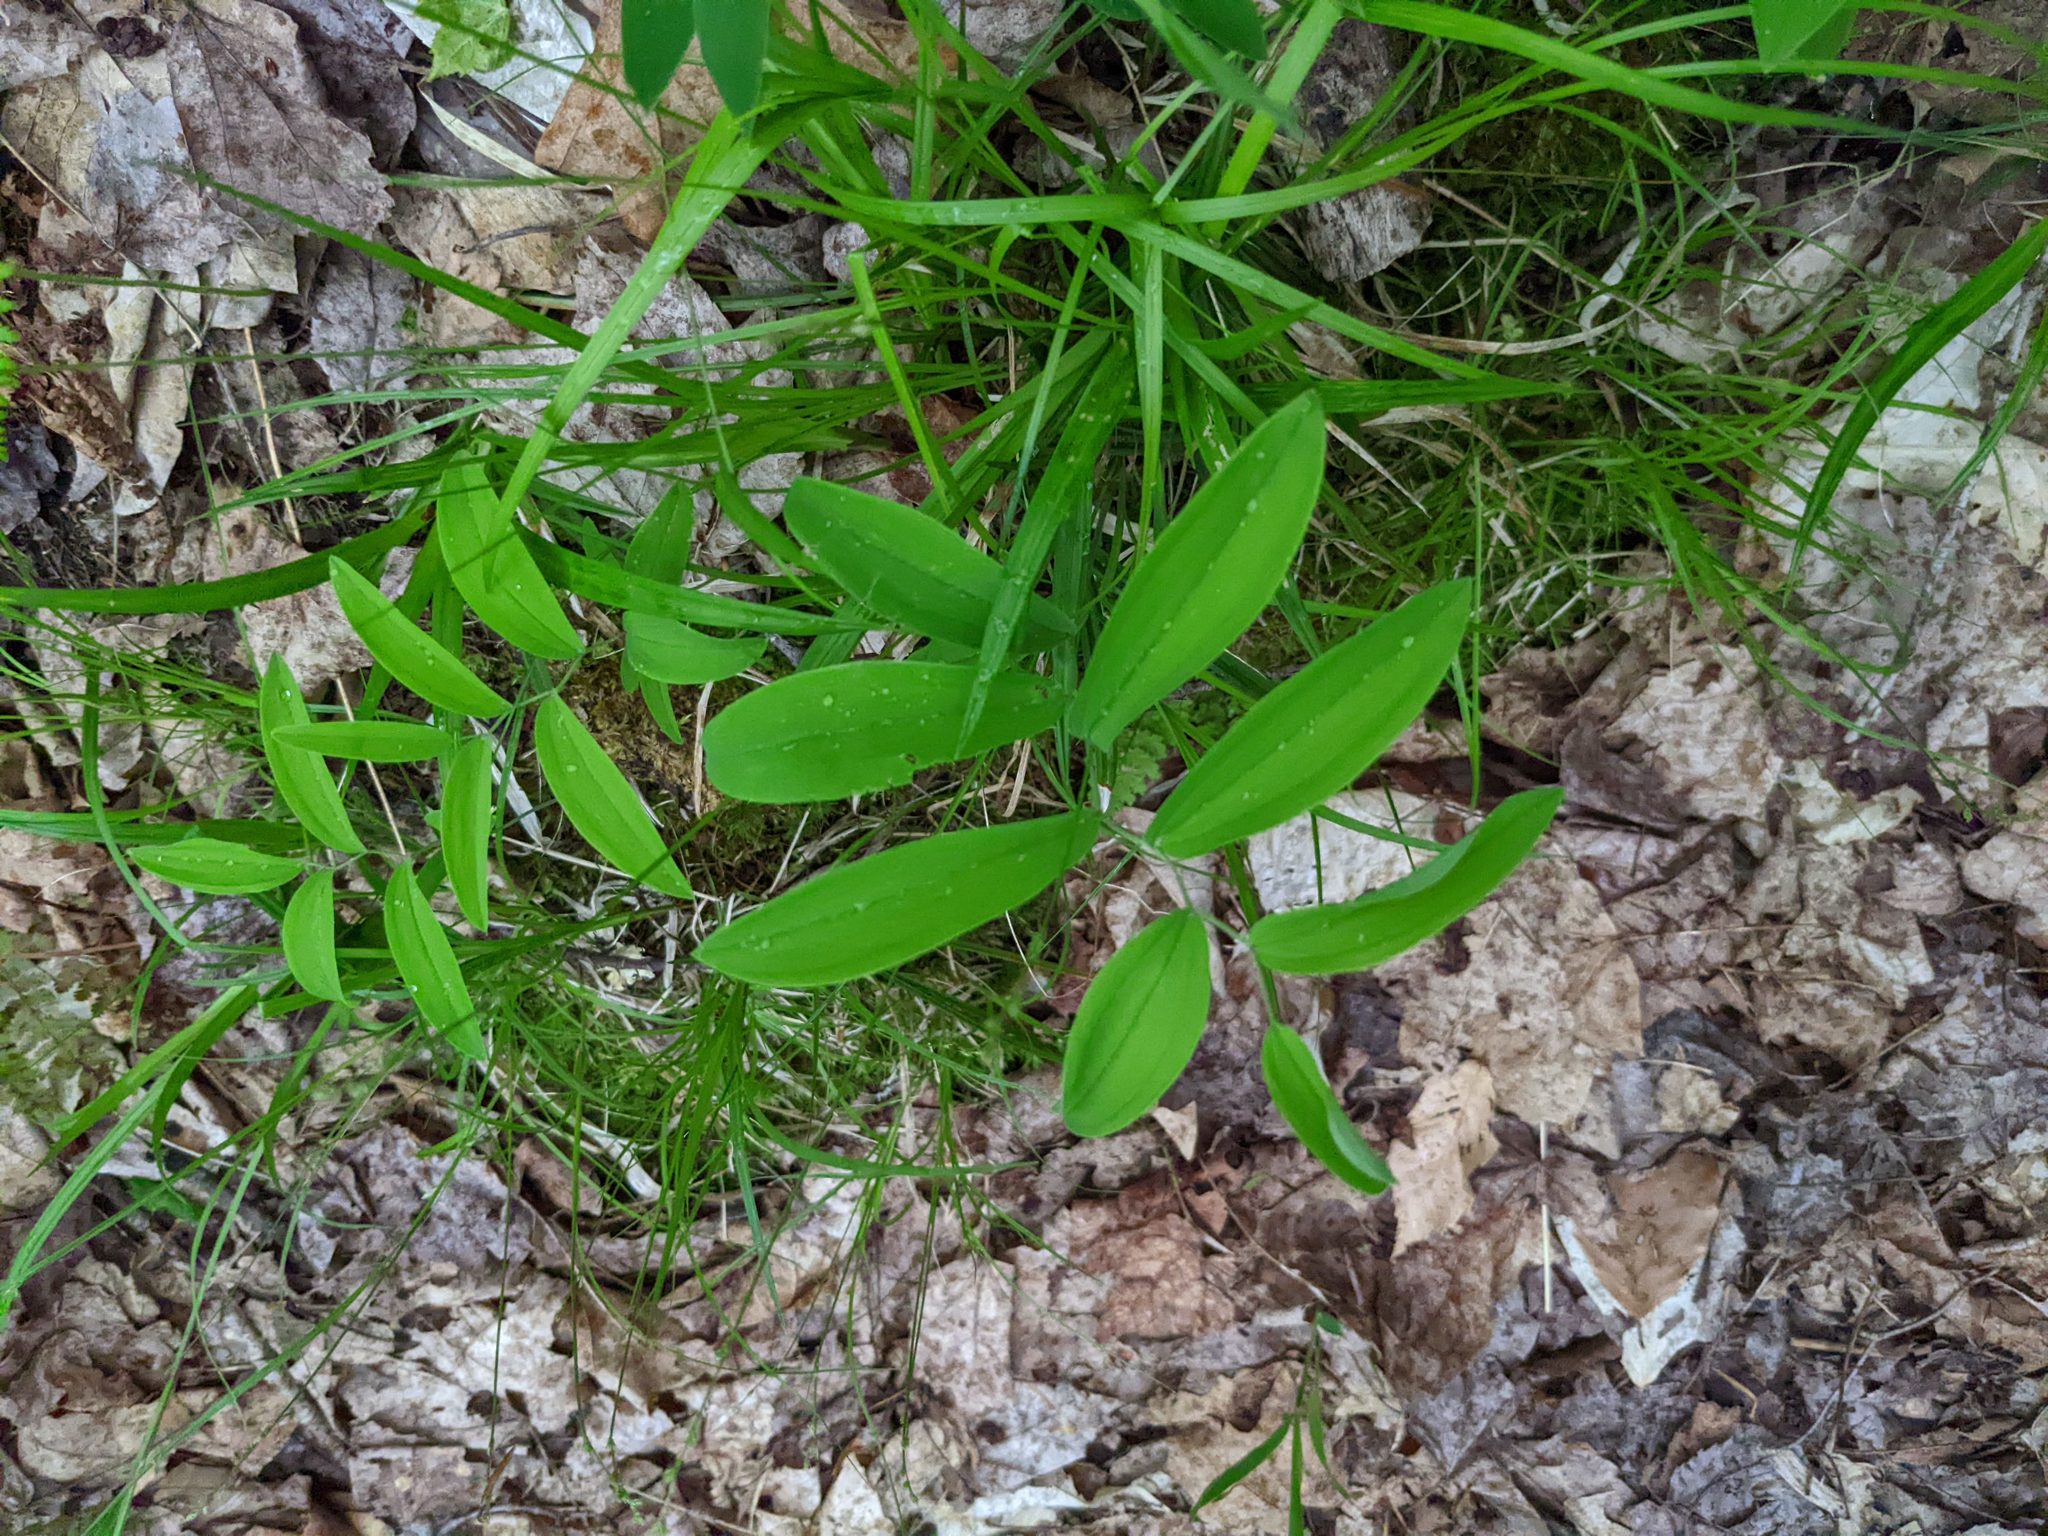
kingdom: Plantae
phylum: Tracheophyta
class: Liliopsida
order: Liliales
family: Colchicaceae
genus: Uvularia
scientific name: Uvularia sessilifolia
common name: Straw-lily
